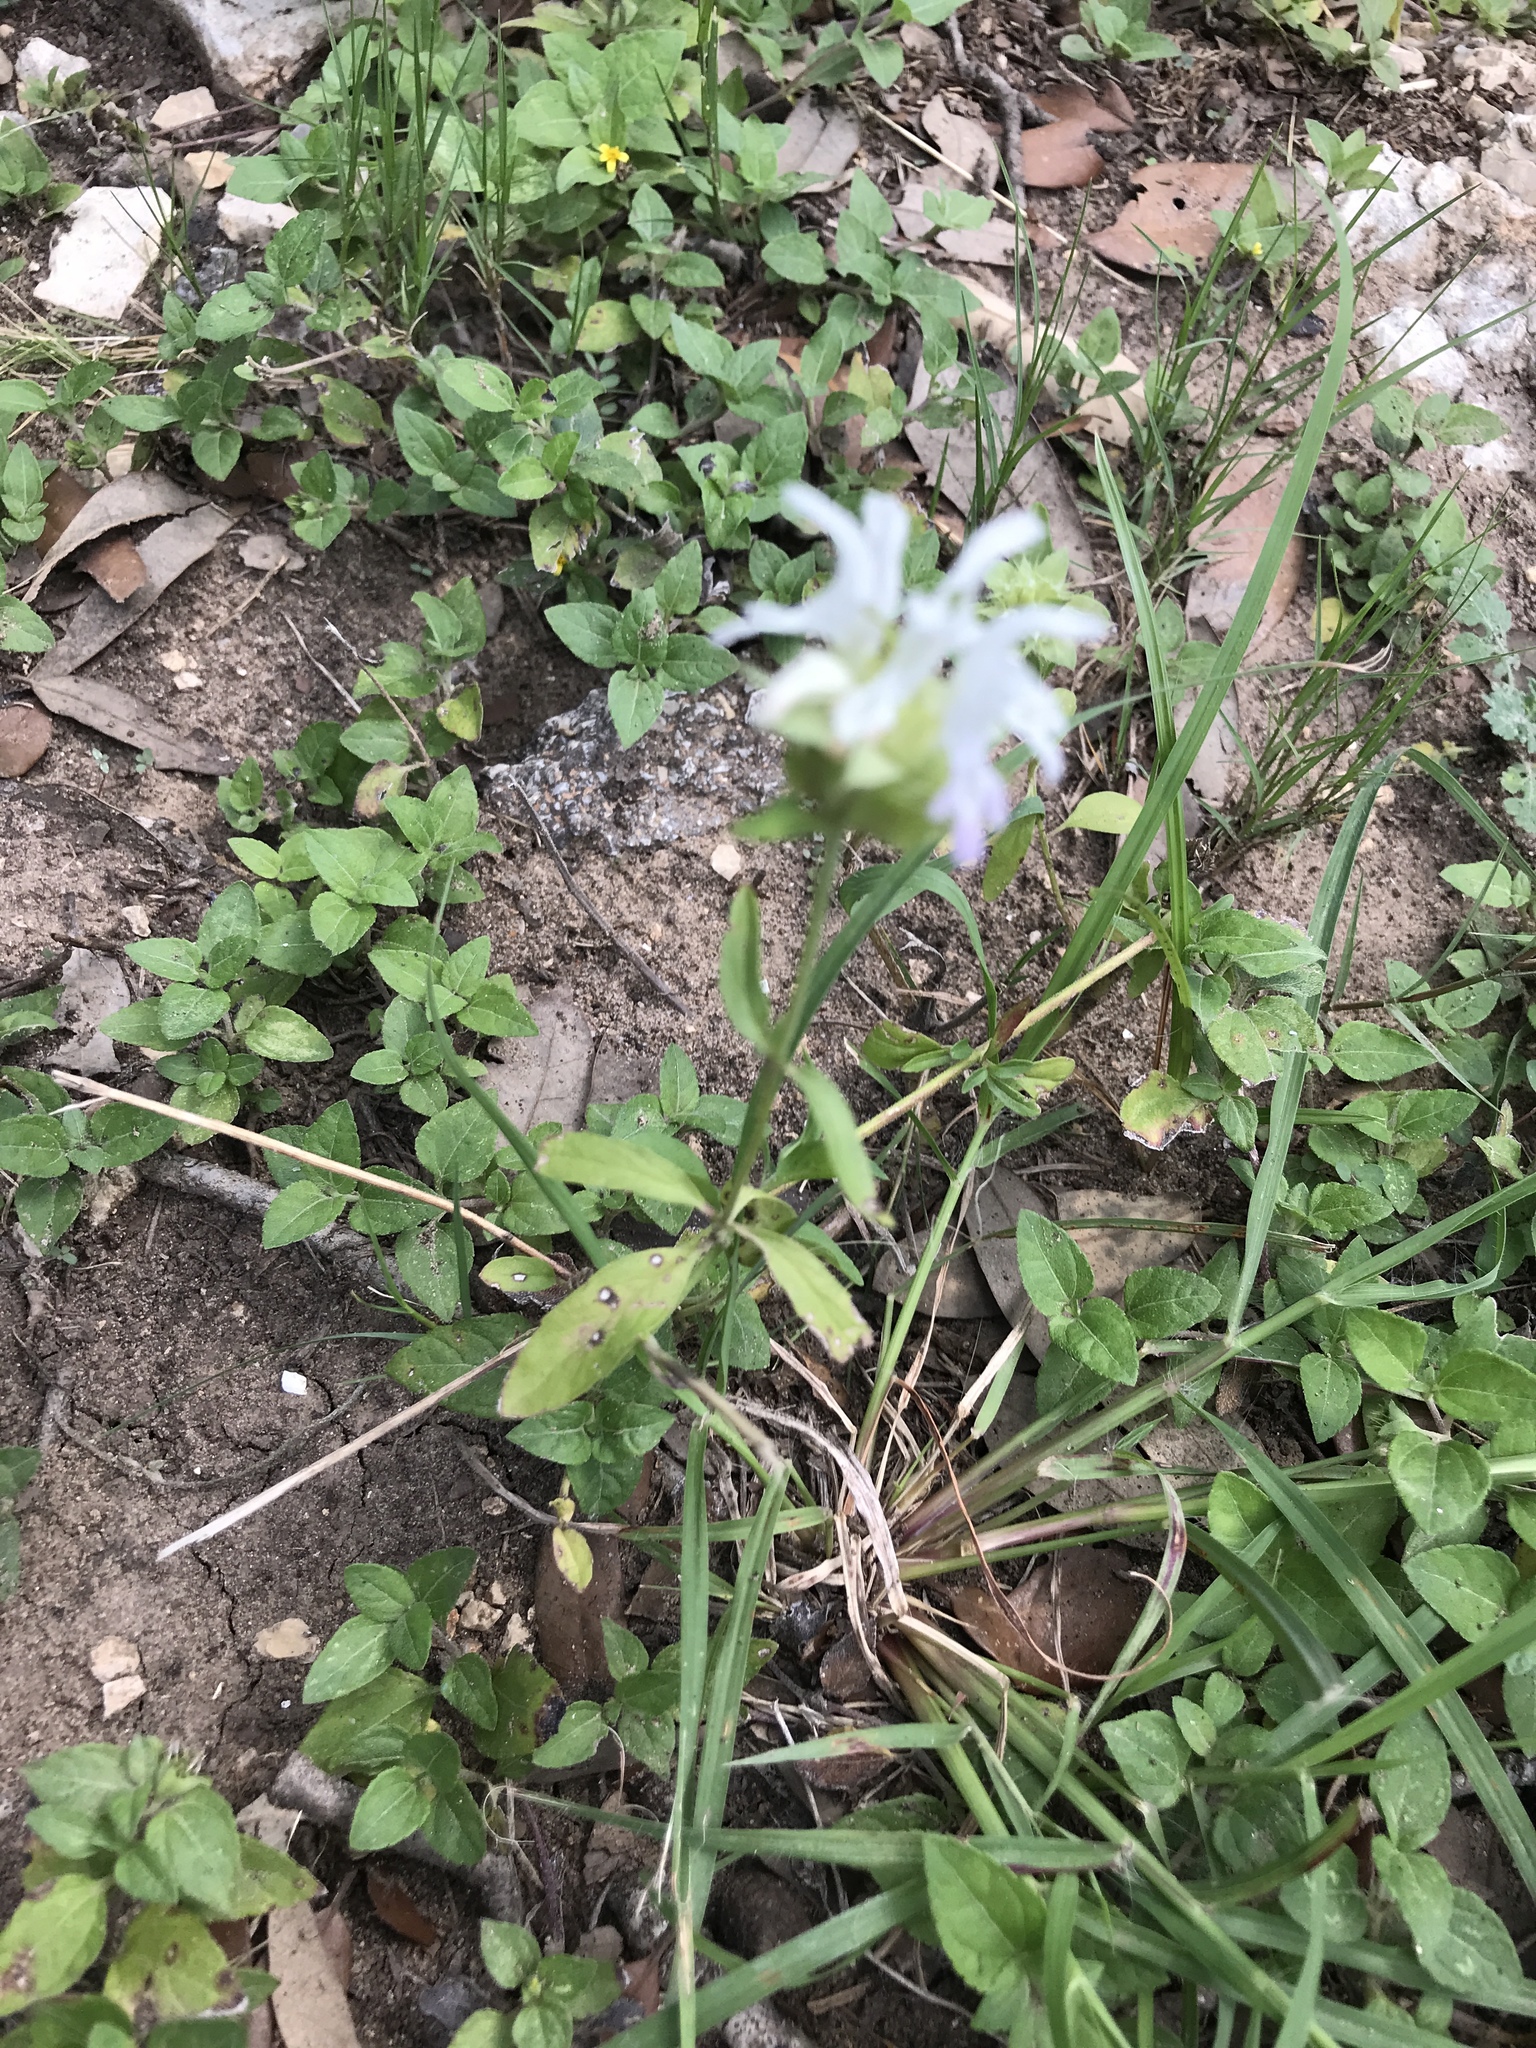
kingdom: Plantae
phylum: Tracheophyta
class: Magnoliopsida
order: Lamiales
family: Lamiaceae
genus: Monarda
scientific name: Monarda citriodora
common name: Lemon beebalm
